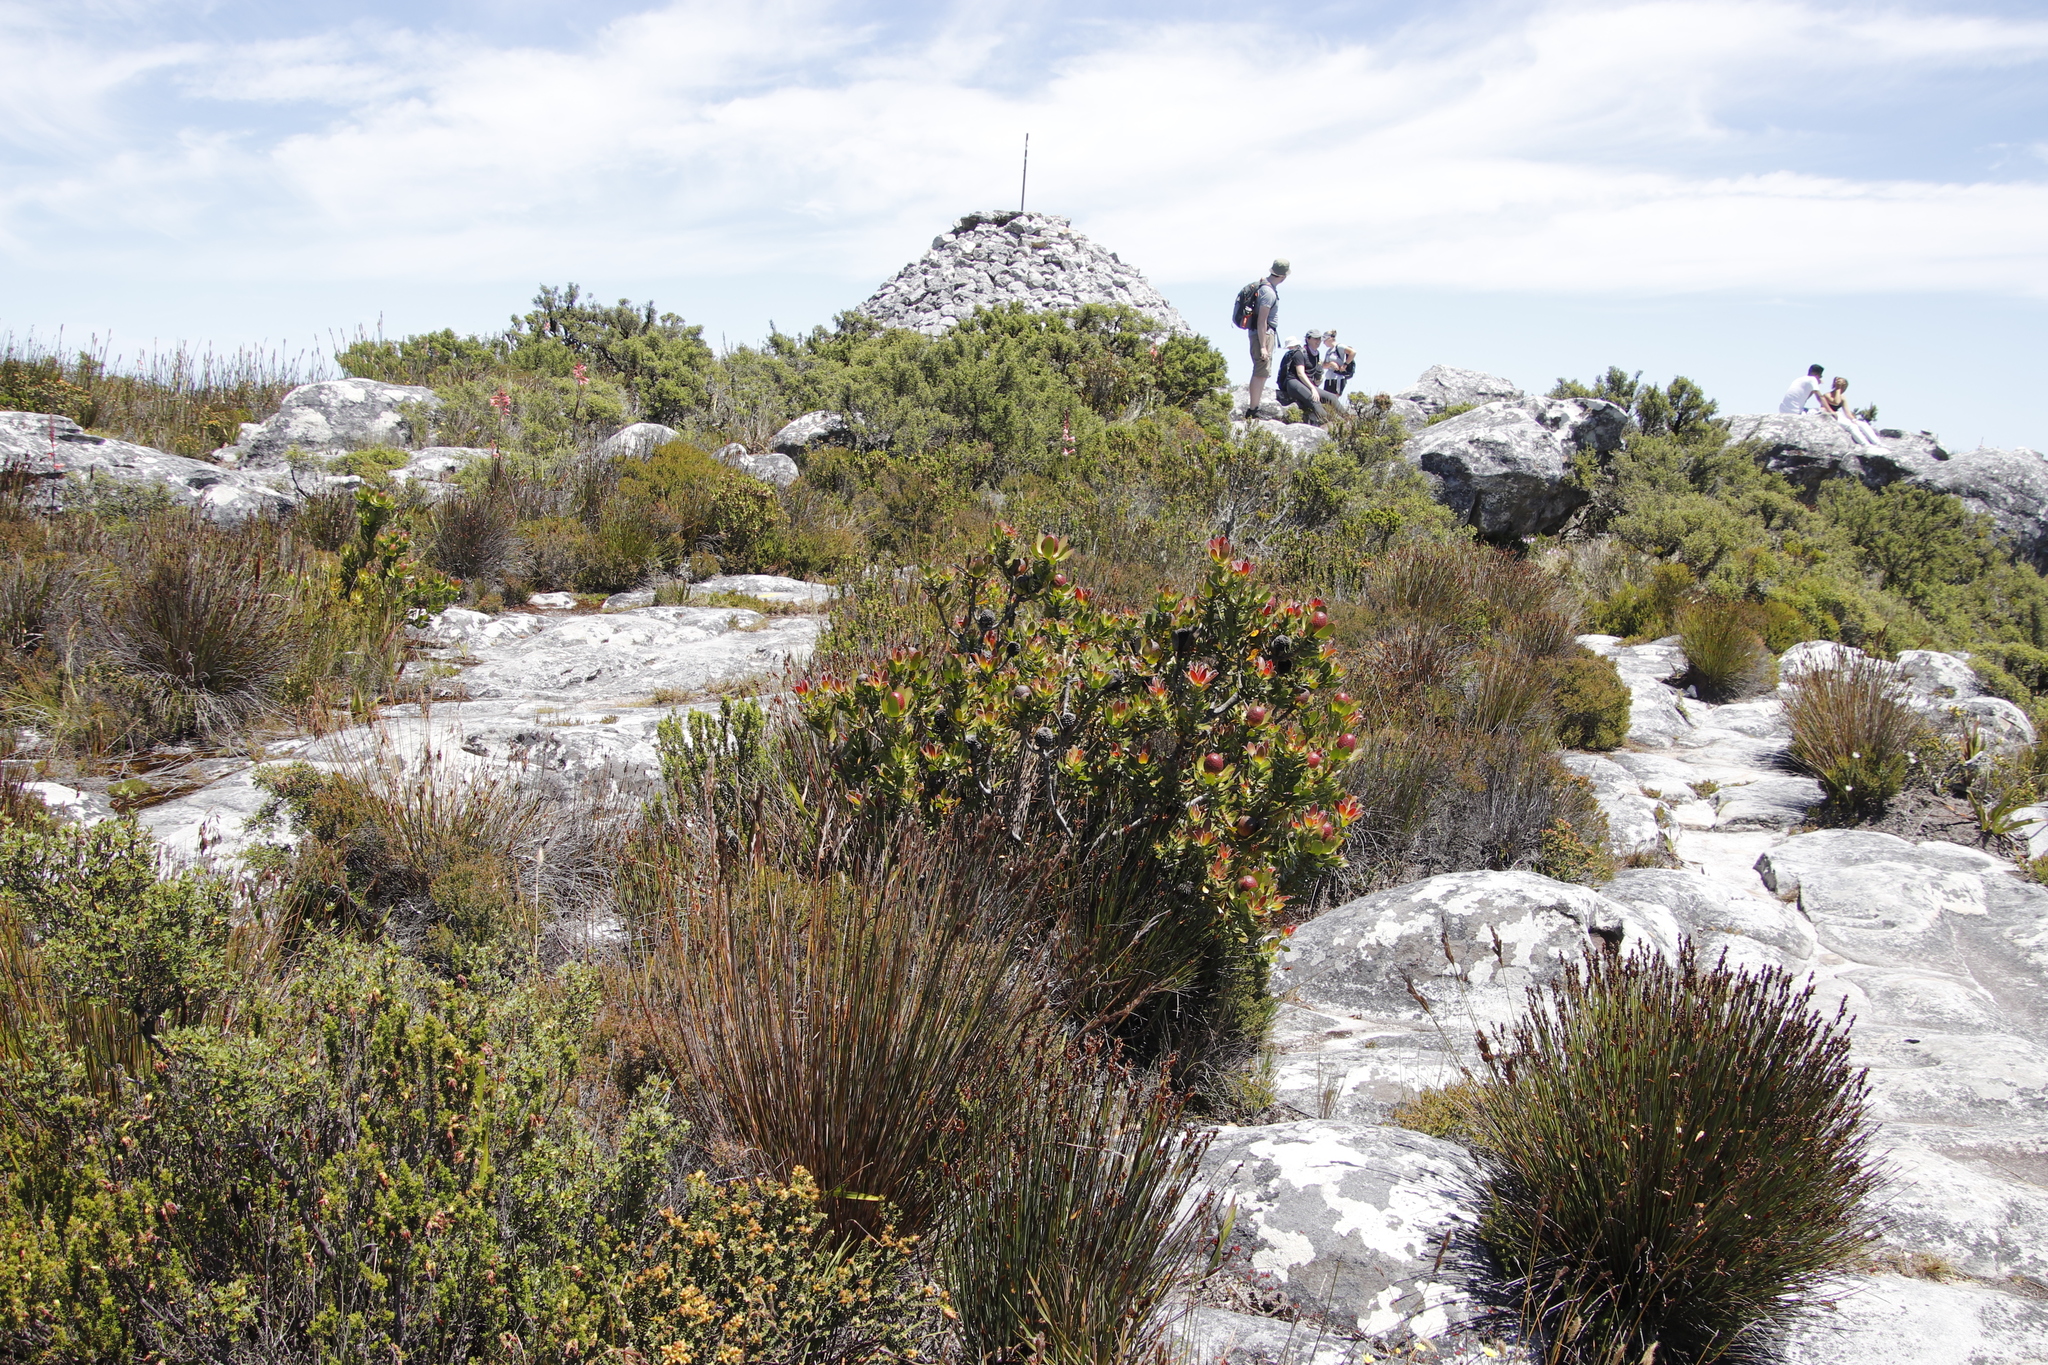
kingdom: Plantae
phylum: Tracheophyta
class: Magnoliopsida
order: Proteales
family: Proteaceae
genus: Leucadendron
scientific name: Leucadendron strobilinum
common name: Mountain rose
